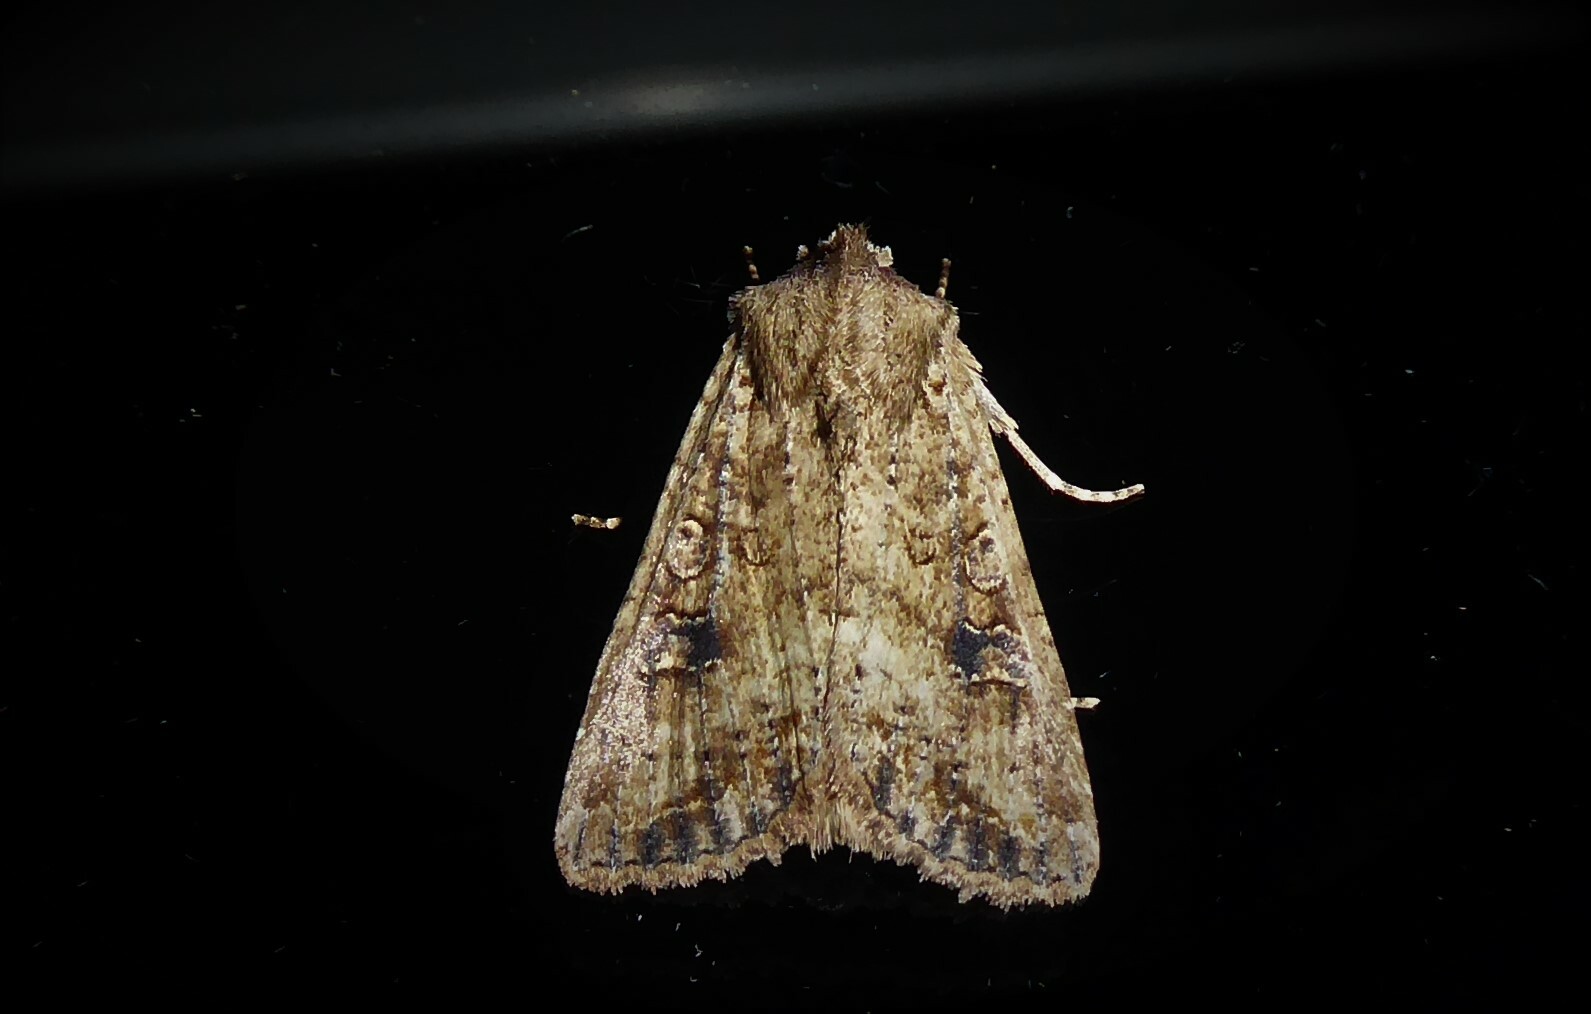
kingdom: Animalia
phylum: Arthropoda
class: Insecta
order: Lepidoptera
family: Noctuidae
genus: Ichneutica
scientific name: Ichneutica morosa
